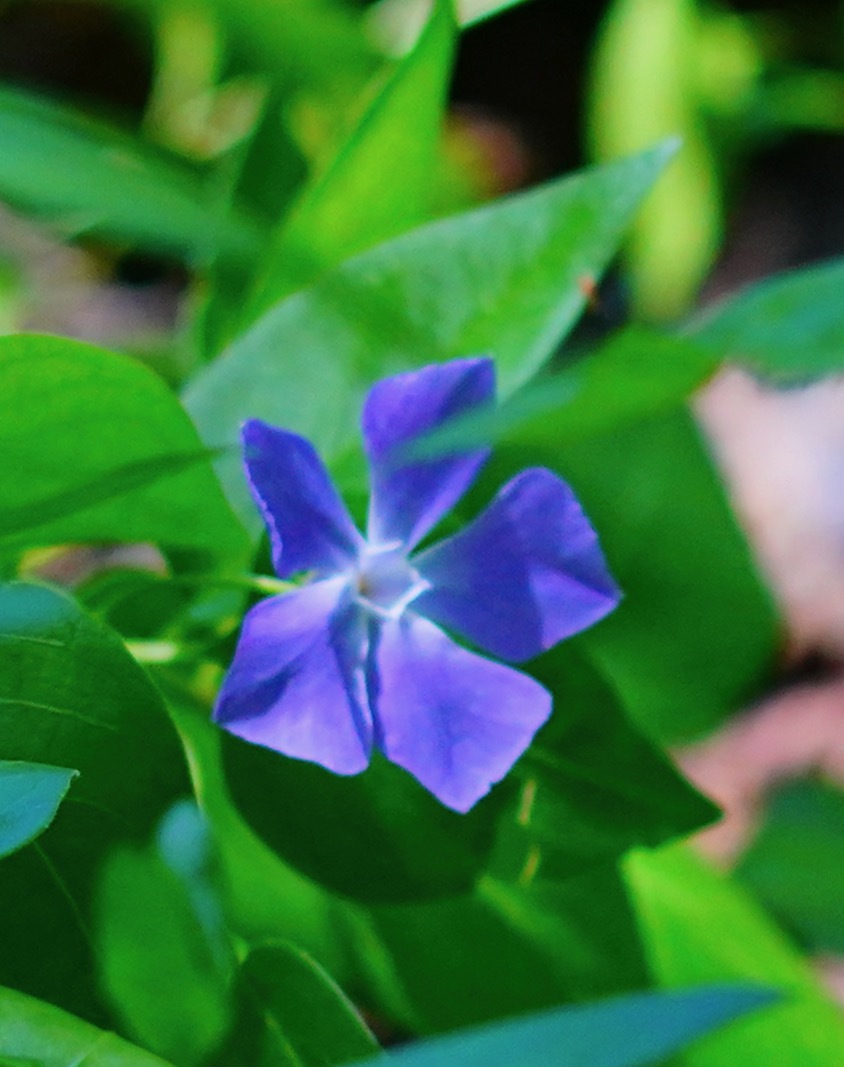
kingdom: Plantae
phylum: Tracheophyta
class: Magnoliopsida
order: Gentianales
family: Apocynaceae
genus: Vinca
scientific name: Vinca major
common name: Greater periwinkle
